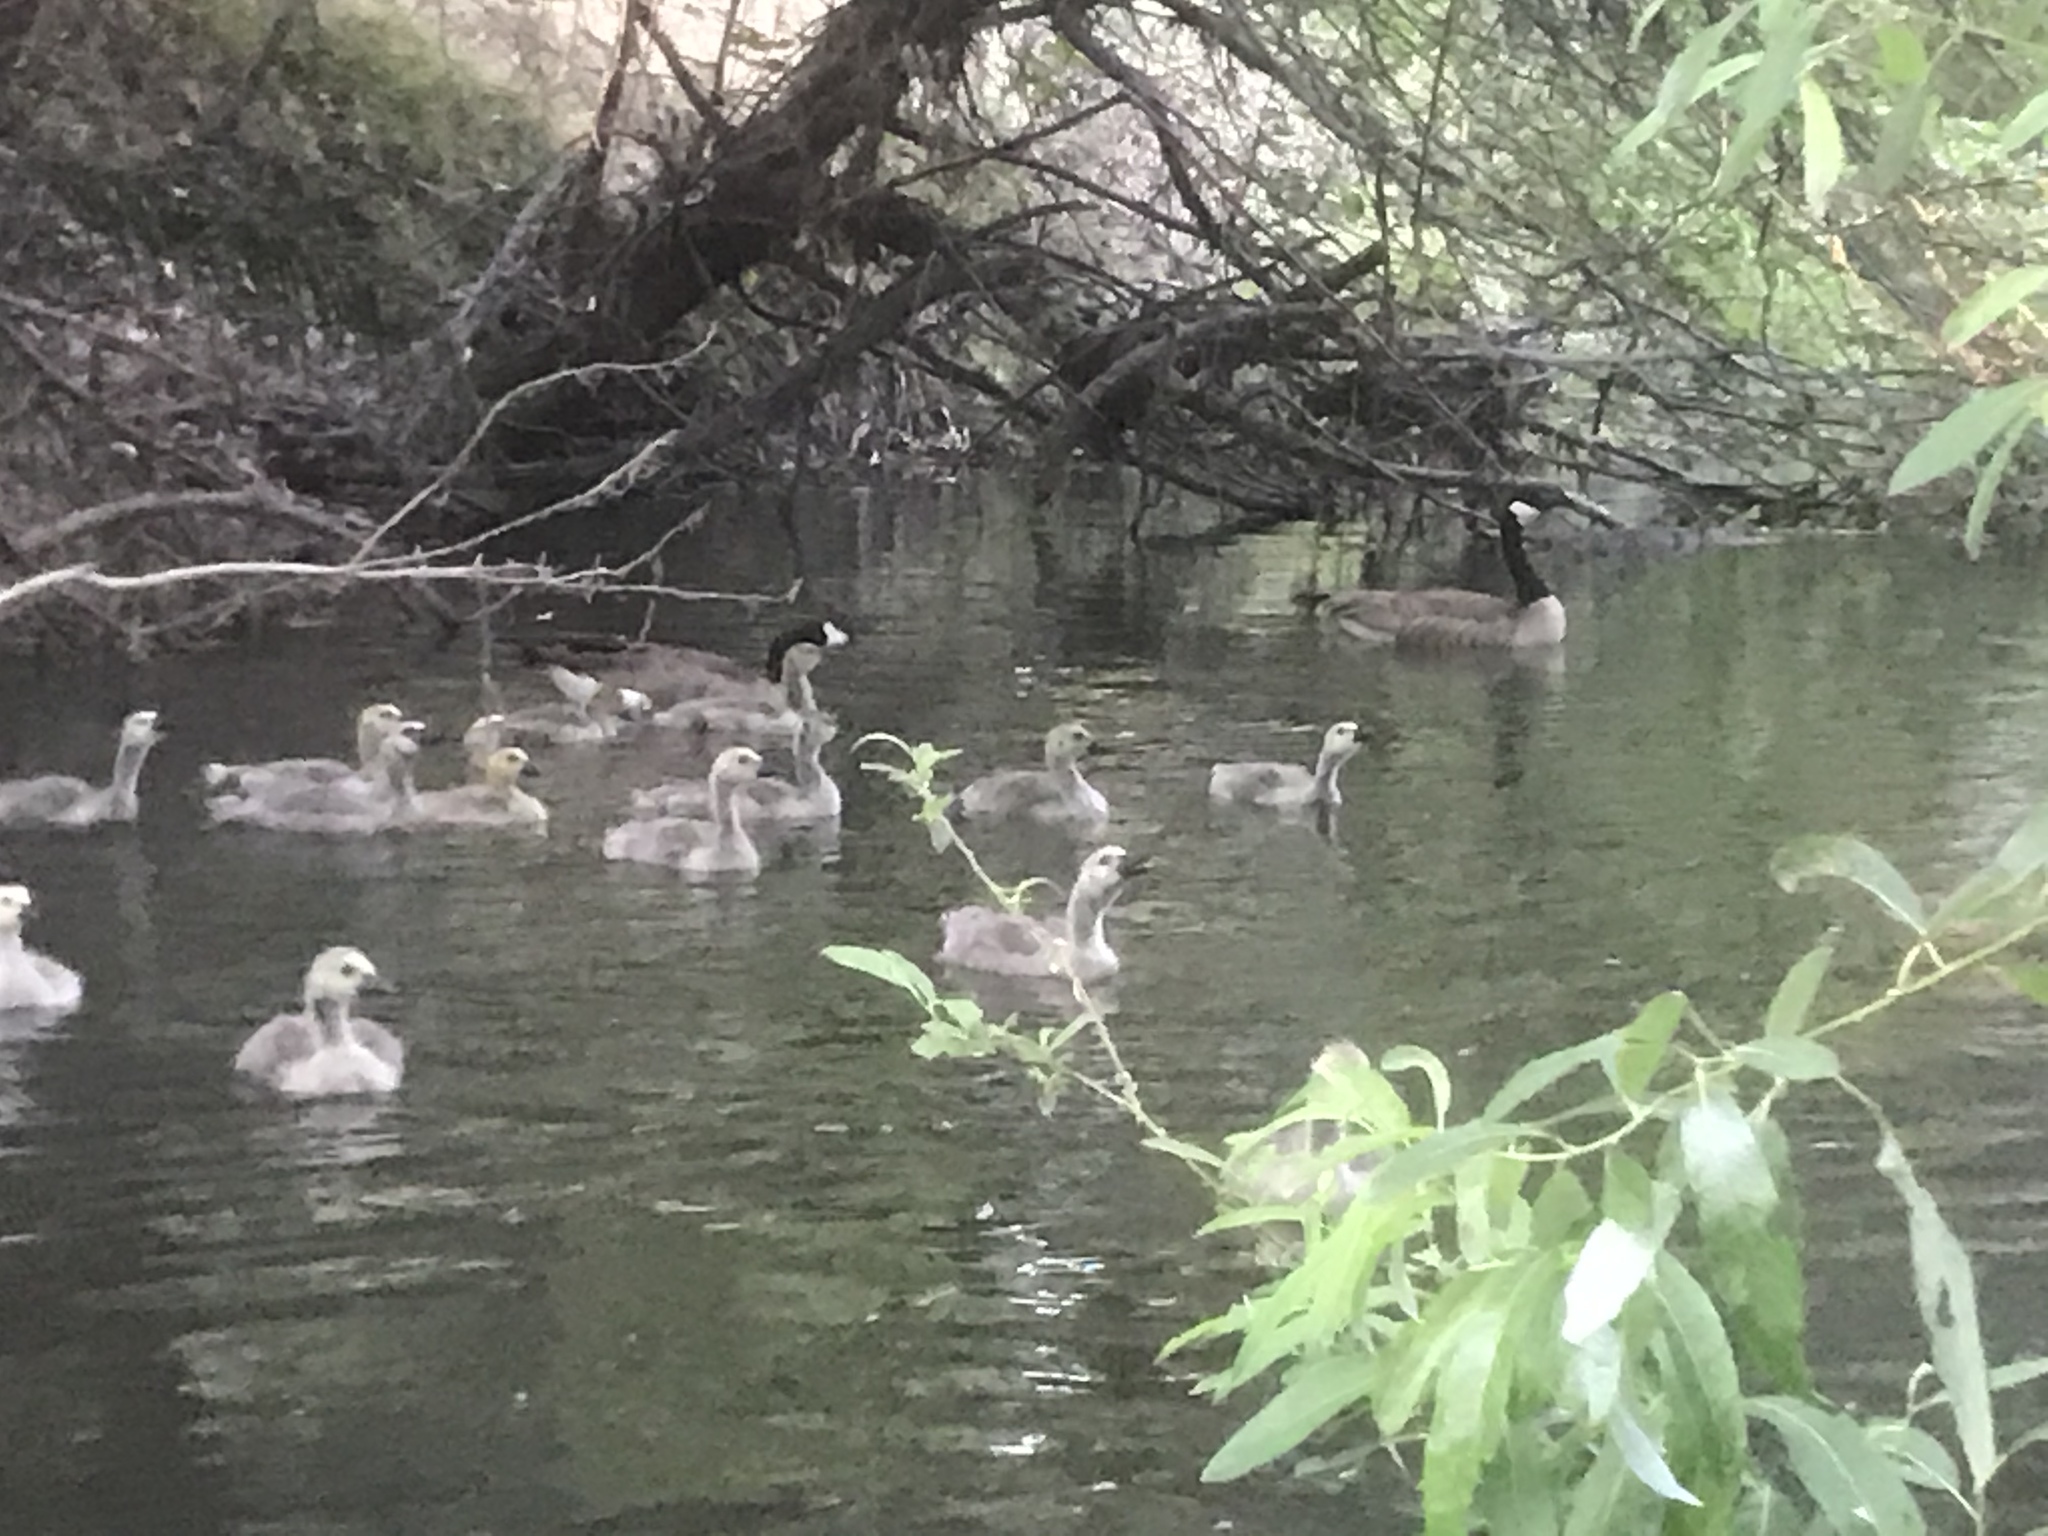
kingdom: Animalia
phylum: Chordata
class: Aves
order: Anseriformes
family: Anatidae
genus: Branta
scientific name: Branta canadensis
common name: Canada goose
